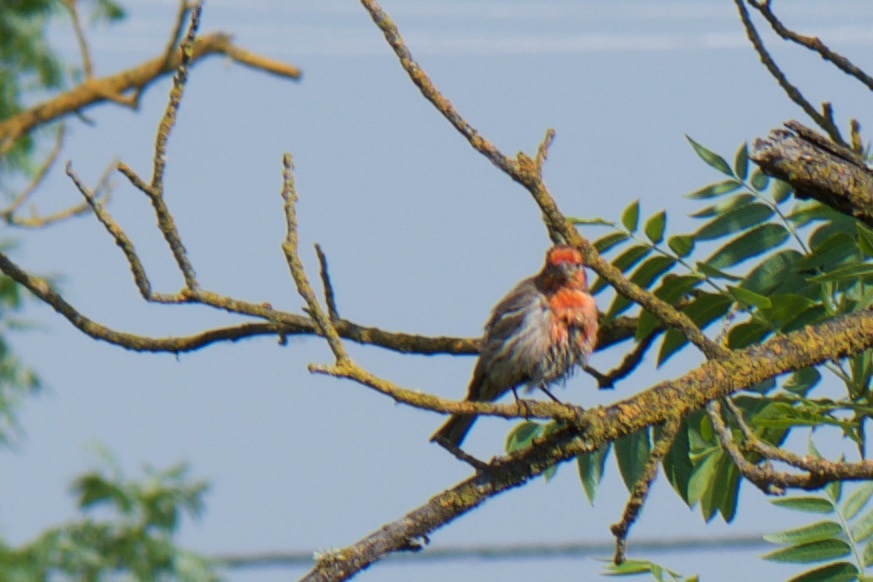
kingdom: Animalia
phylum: Chordata
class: Aves
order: Passeriformes
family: Fringillidae
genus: Haemorhous
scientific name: Haemorhous mexicanus
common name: House finch
